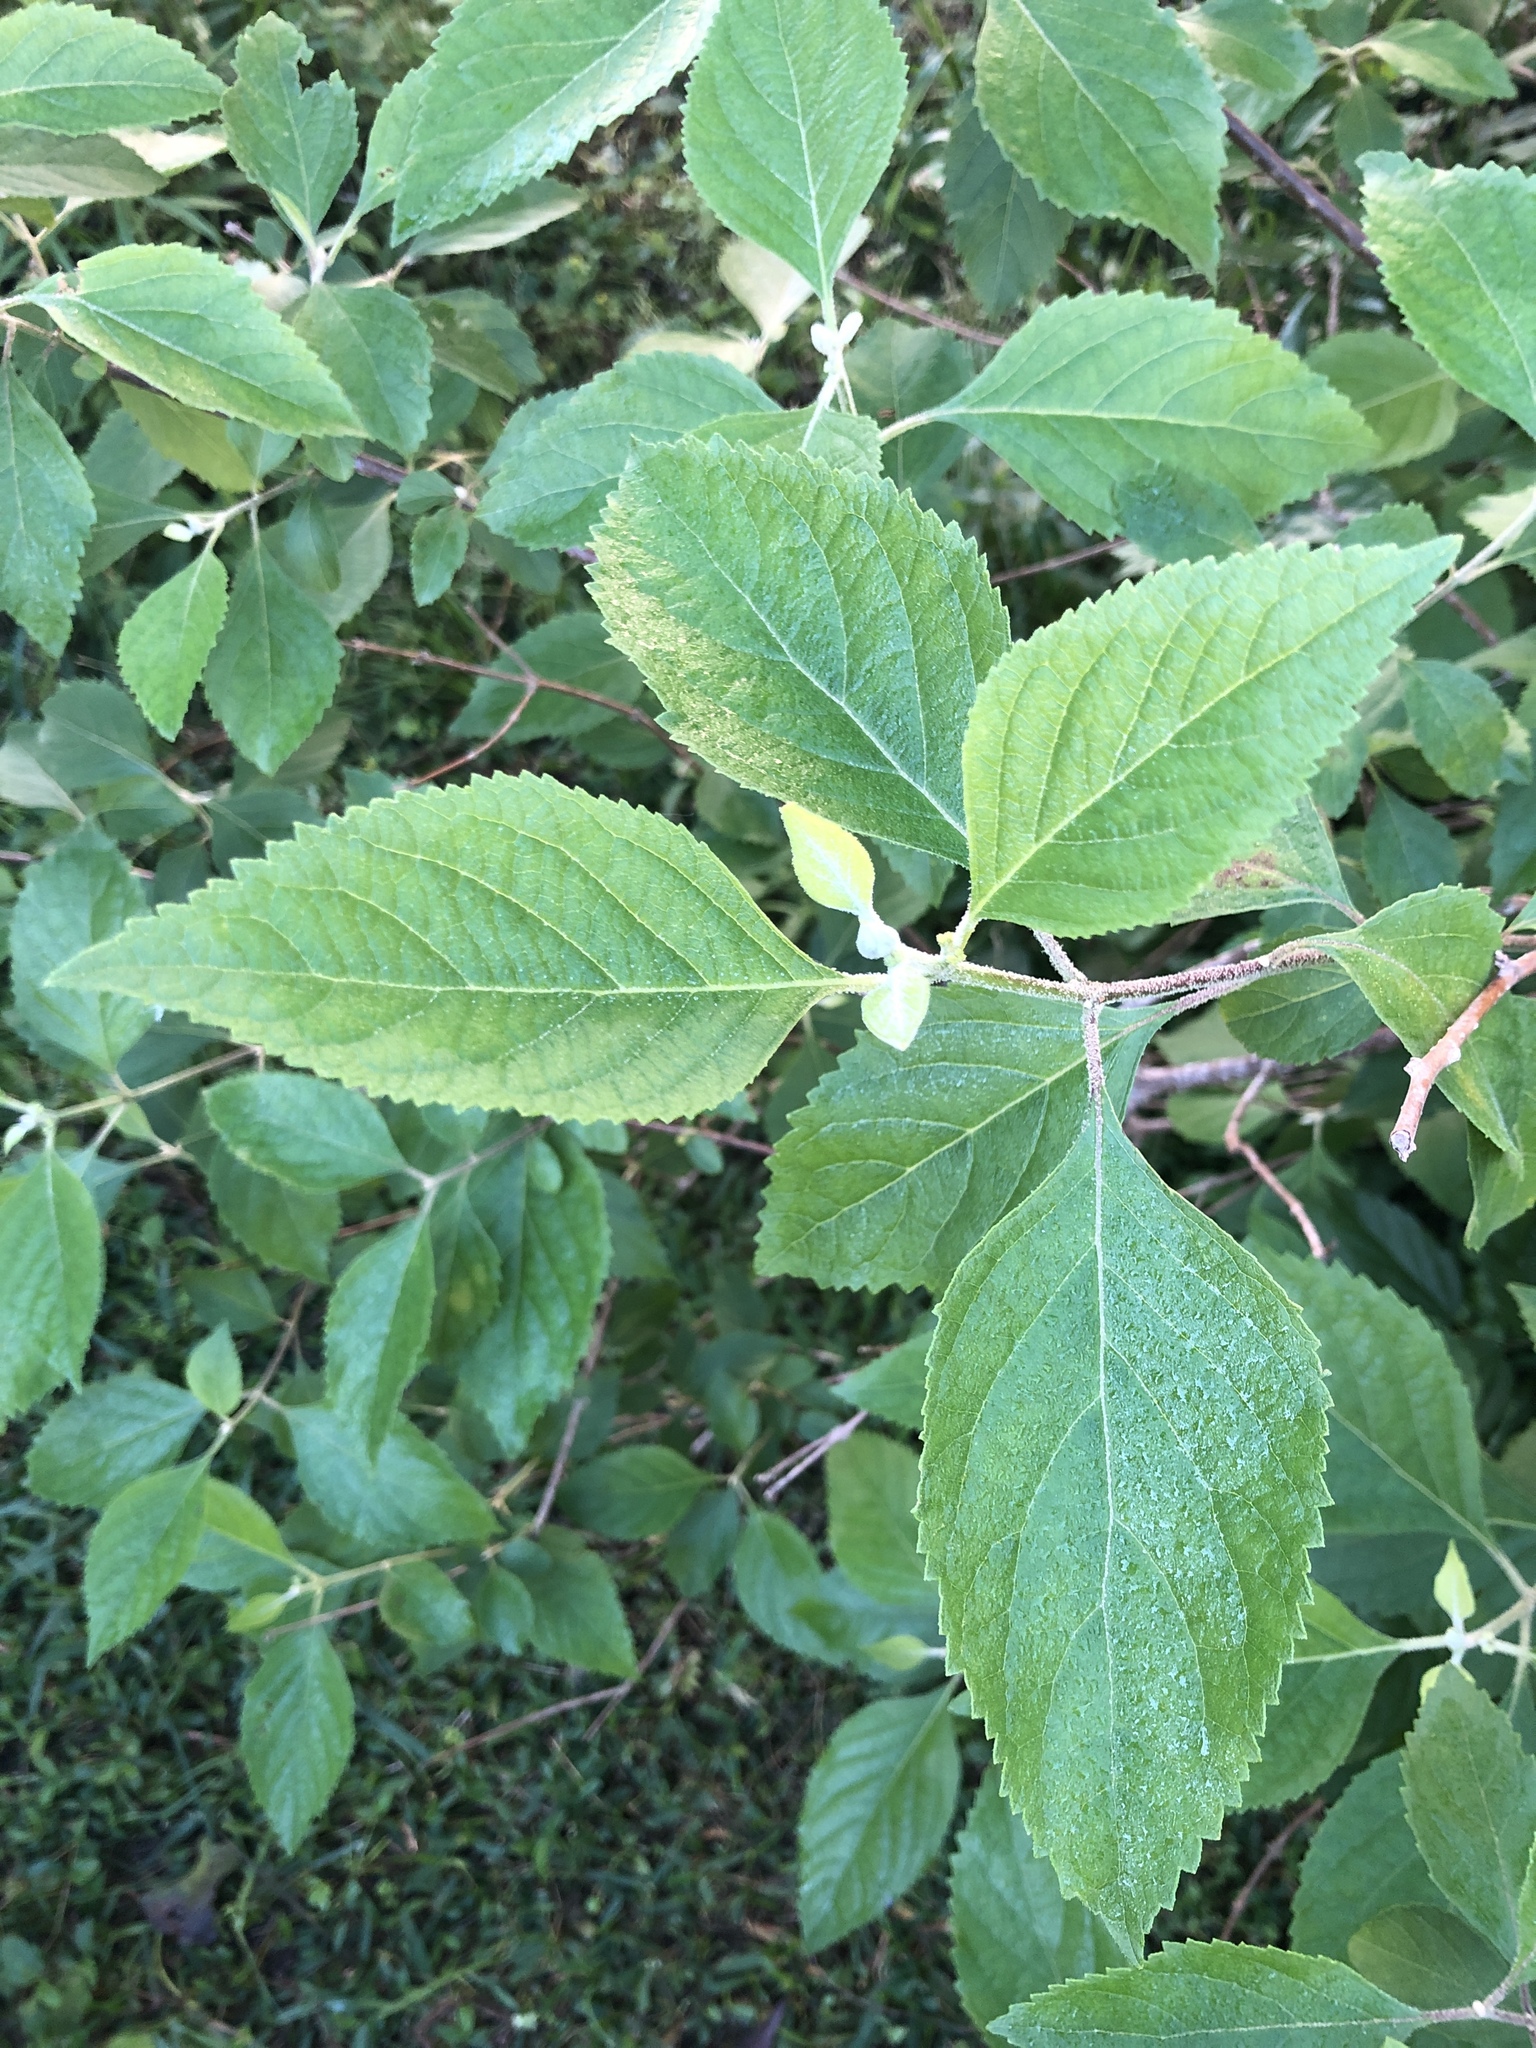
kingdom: Plantae
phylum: Tracheophyta
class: Magnoliopsida
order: Lamiales
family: Lamiaceae
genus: Callicarpa
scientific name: Callicarpa americana
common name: American beautyberry
